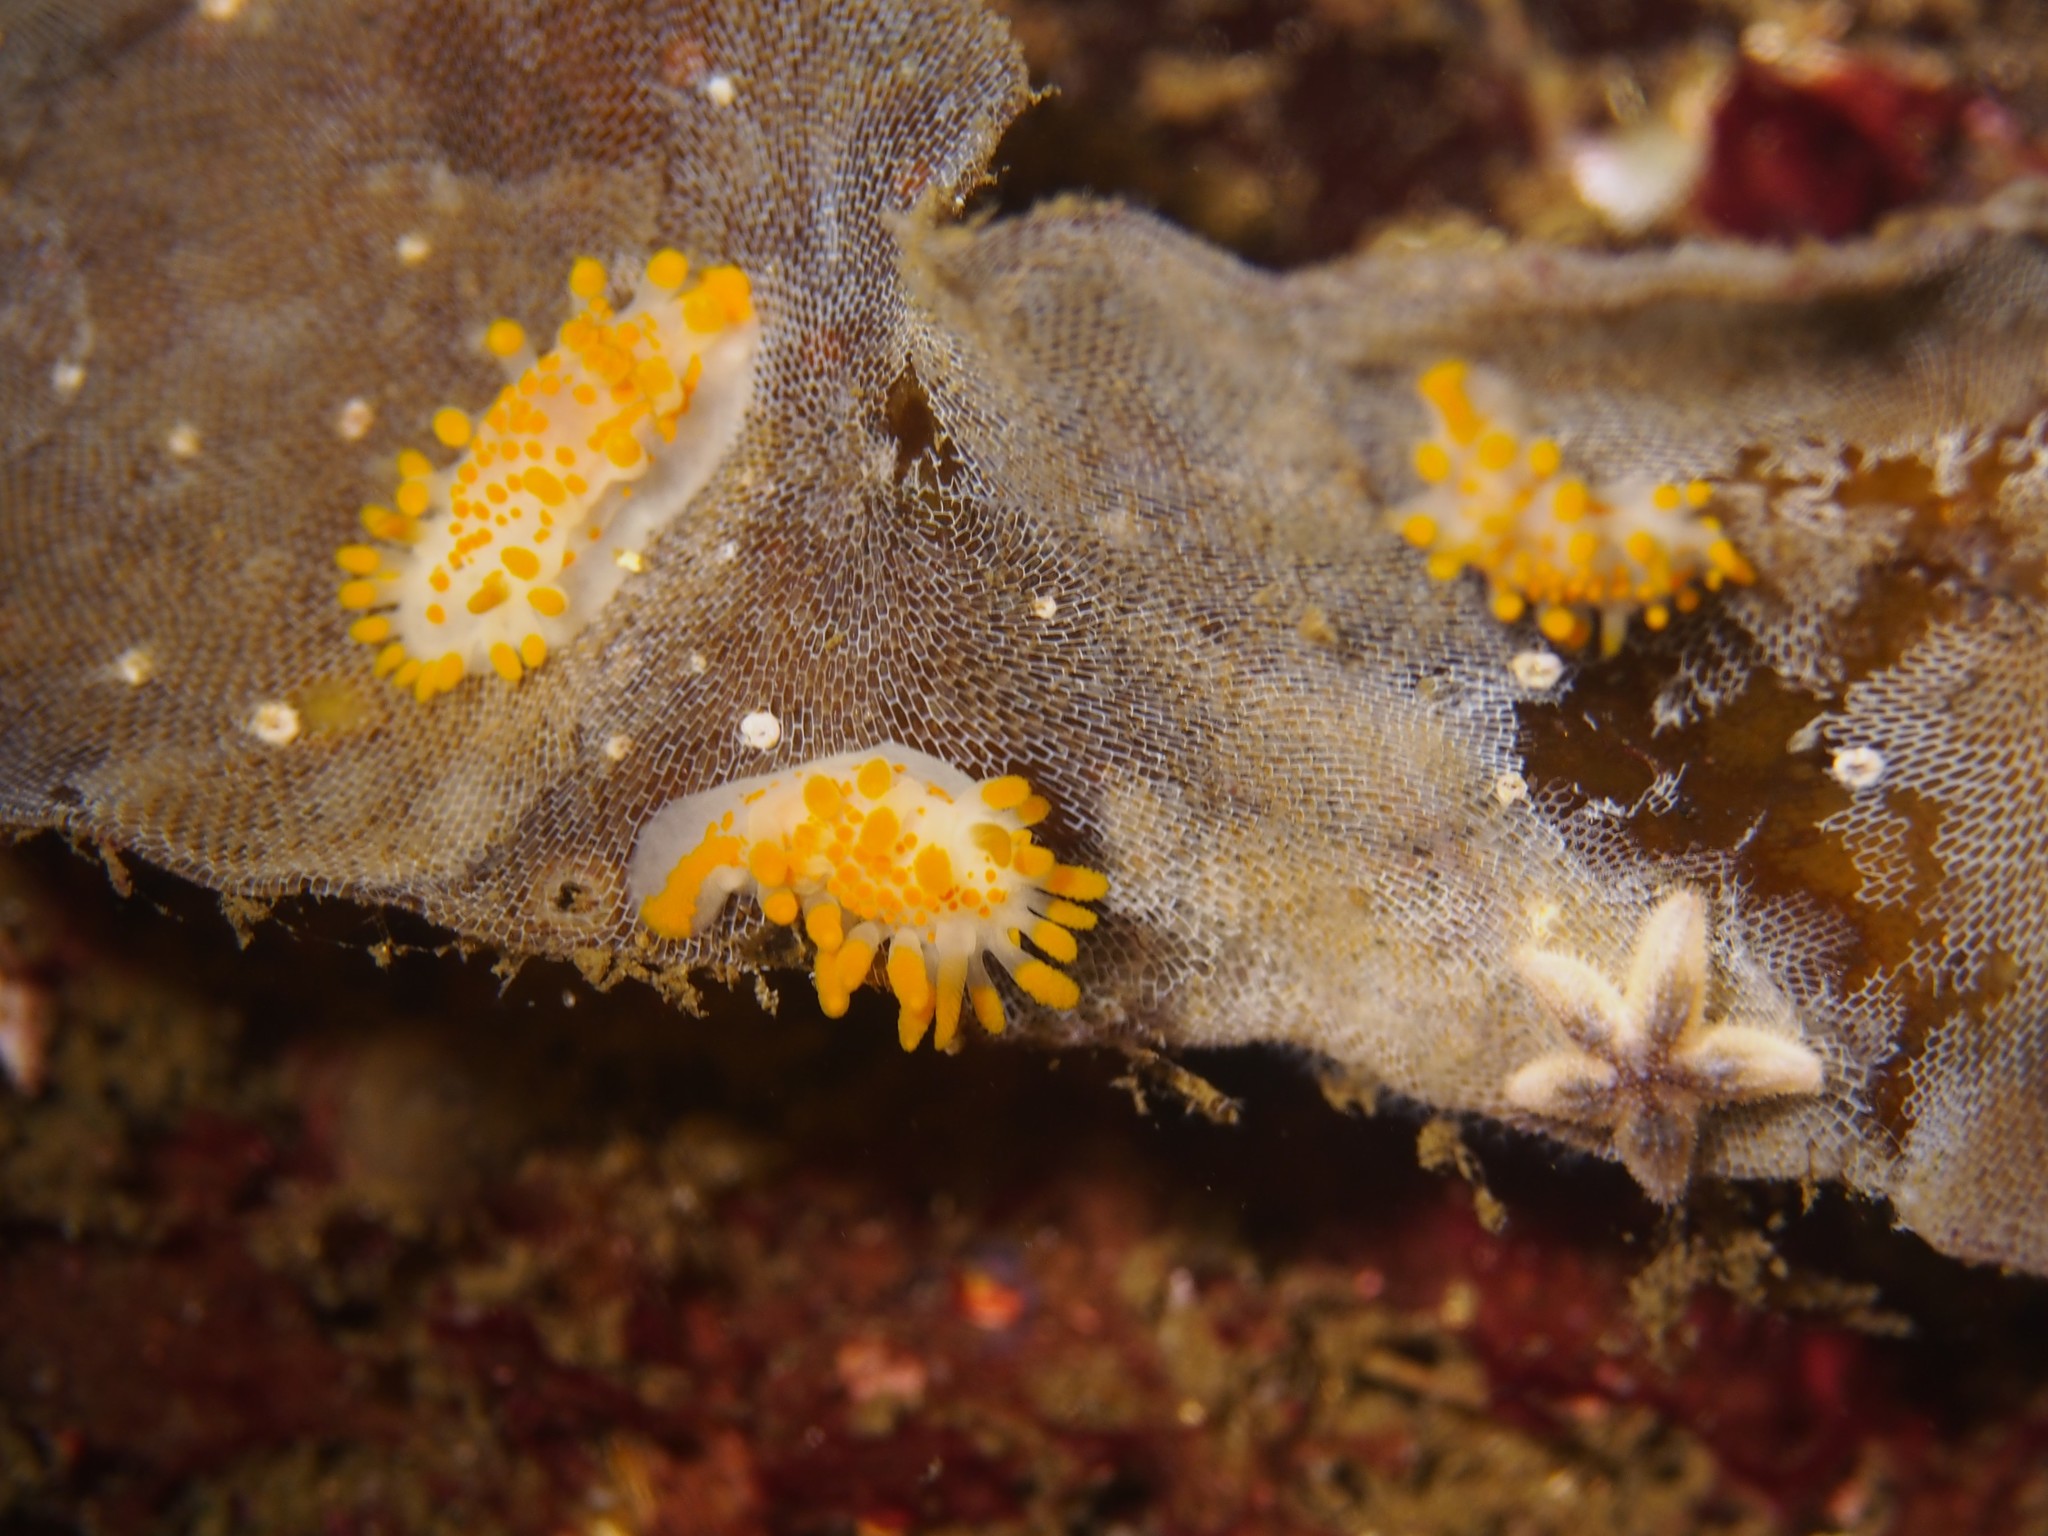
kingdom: Animalia
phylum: Mollusca
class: Gastropoda
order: Nudibranchia
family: Polyceridae
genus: Limacia
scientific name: Limacia clavigera
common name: Orange-clubbed sea slug
